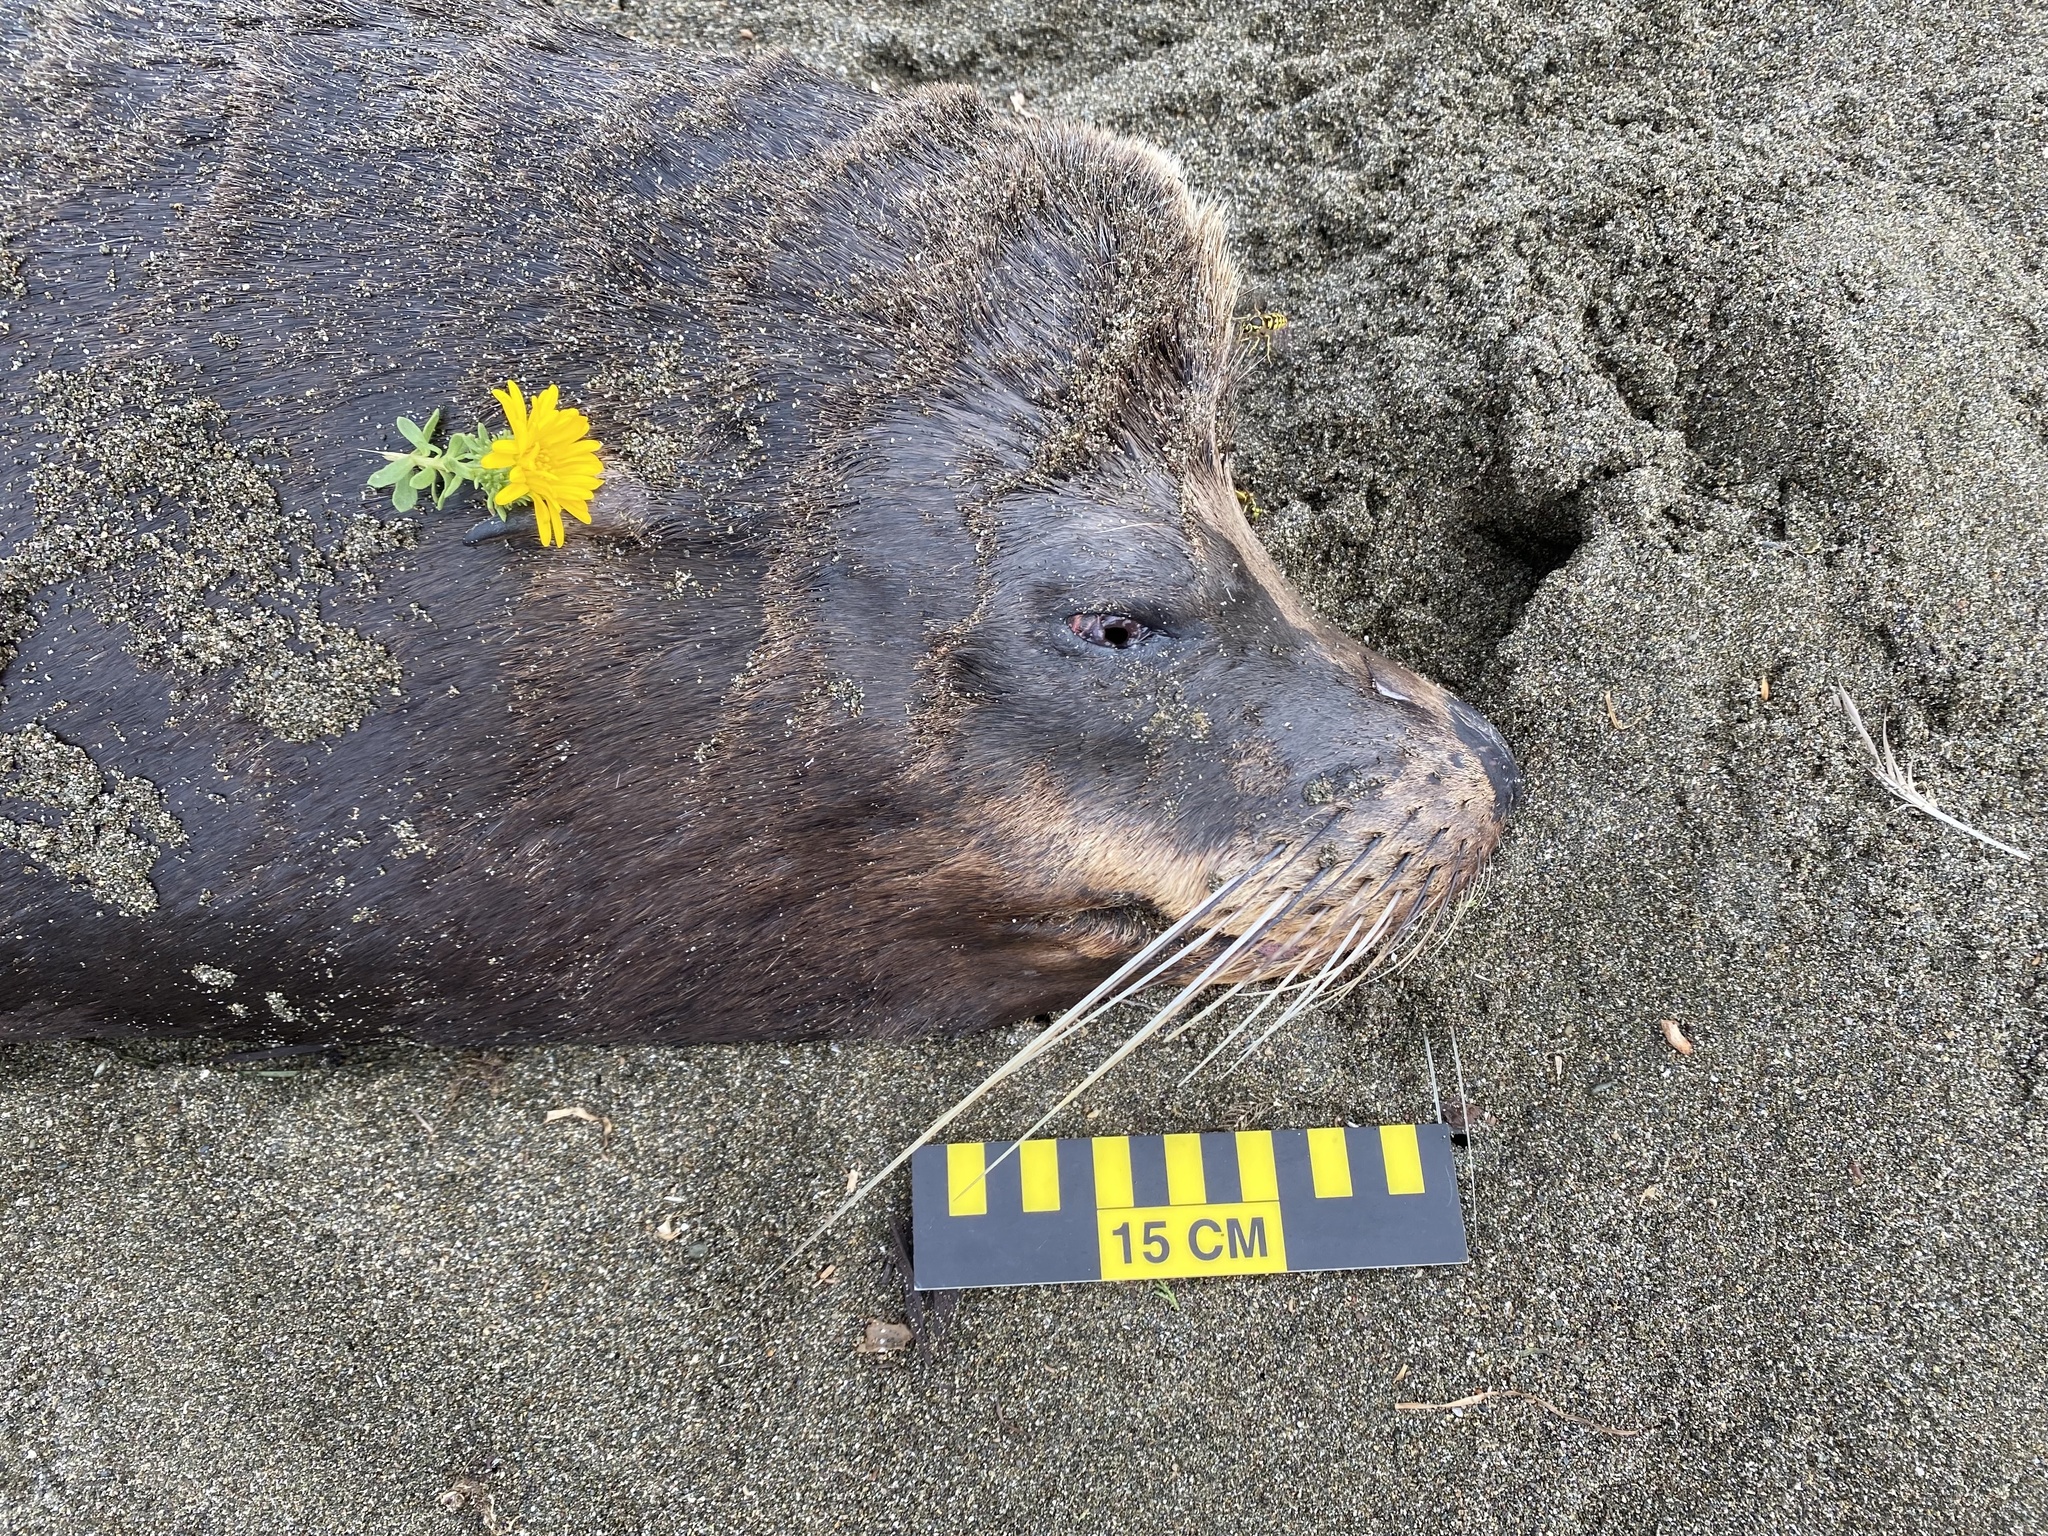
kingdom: Animalia
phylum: Chordata
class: Mammalia
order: Carnivora
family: Otariidae
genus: Zalophus
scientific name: Zalophus californianus
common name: California sea lion
